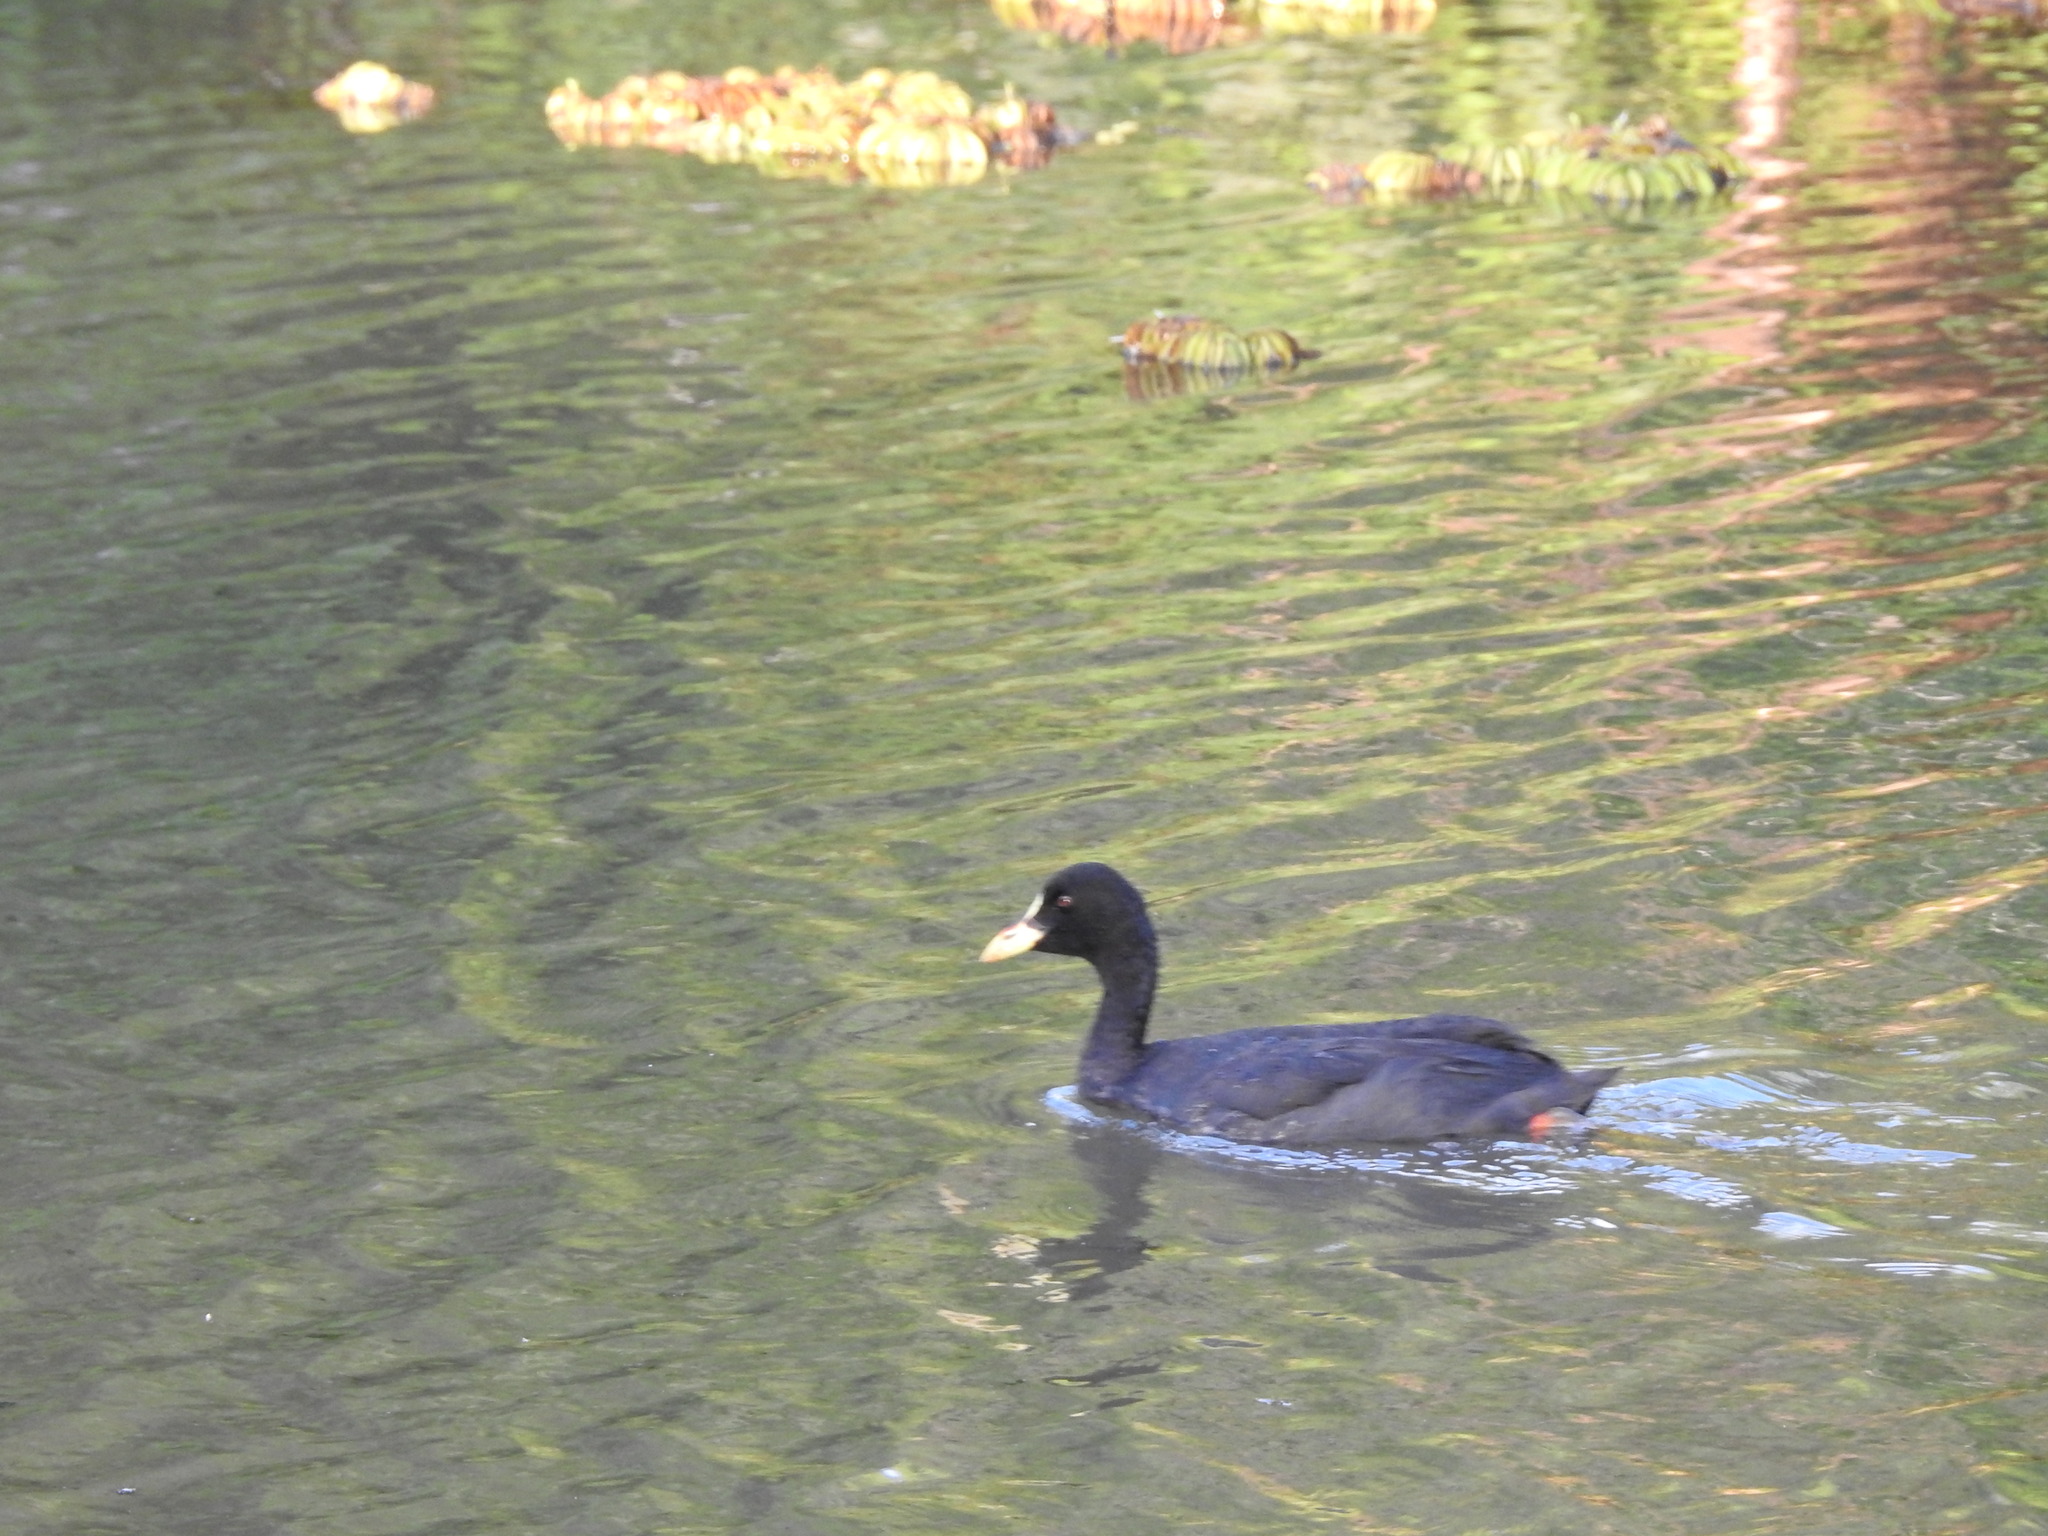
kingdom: Animalia
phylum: Chordata
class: Aves
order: Gruiformes
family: Rallidae
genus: Fulica
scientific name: Fulica armillata
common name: Red-gartered coot
